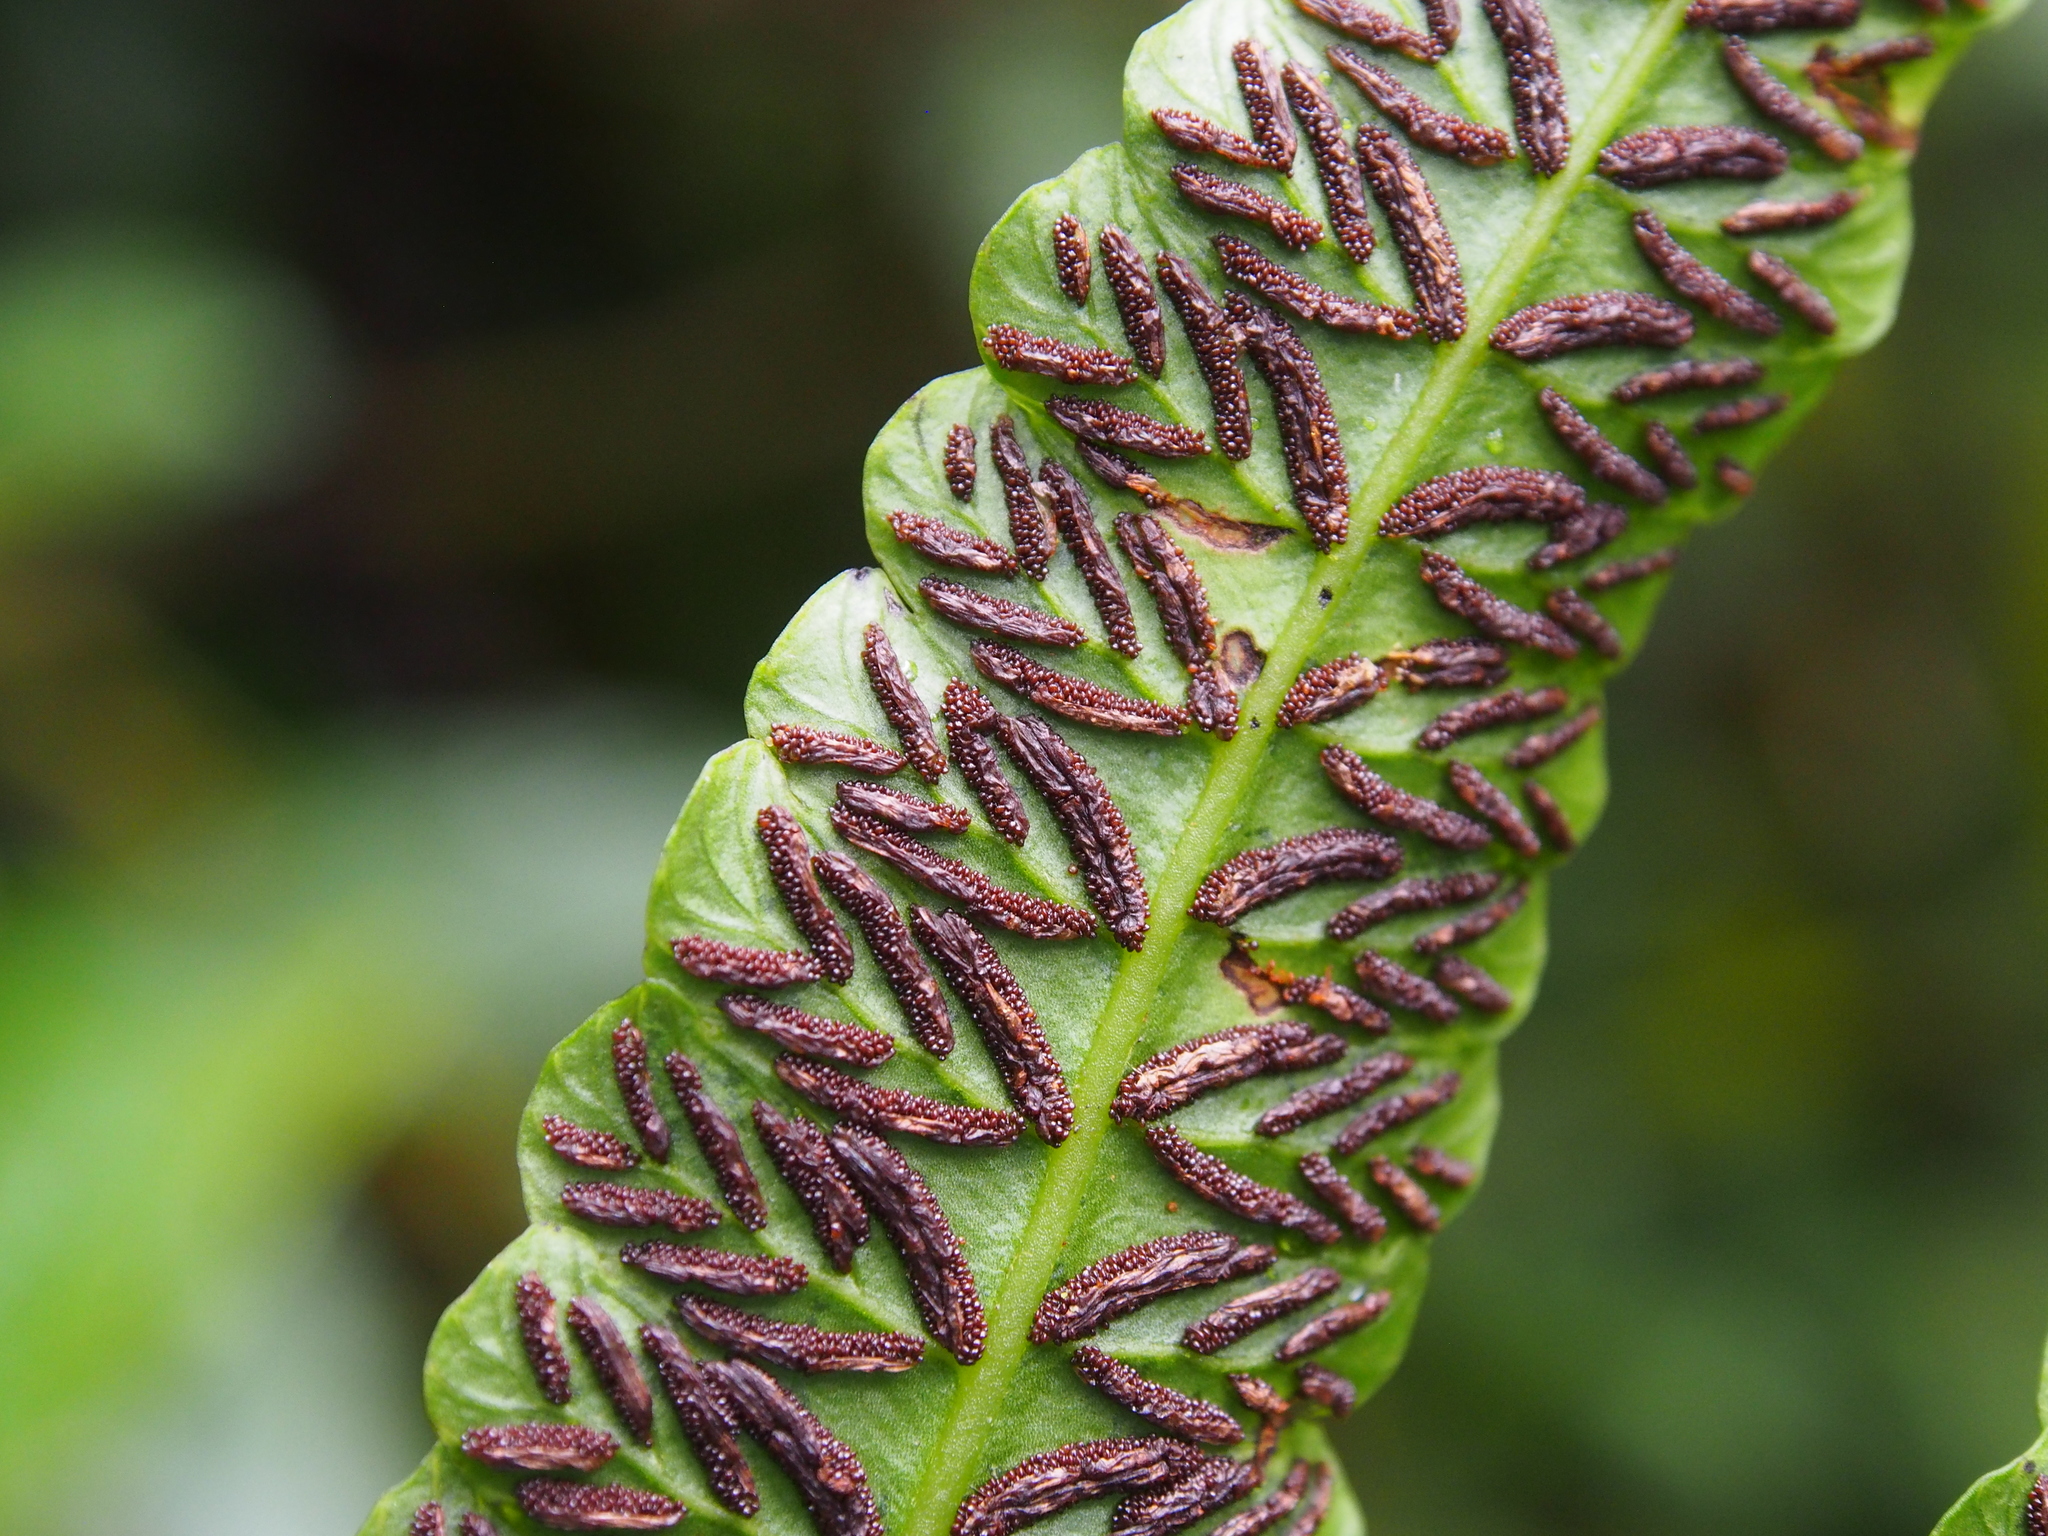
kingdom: Plantae
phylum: Tracheophyta
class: Polypodiopsida
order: Polypodiales
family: Athyriaceae
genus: Diplazium
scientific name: Diplazium urticifolium
